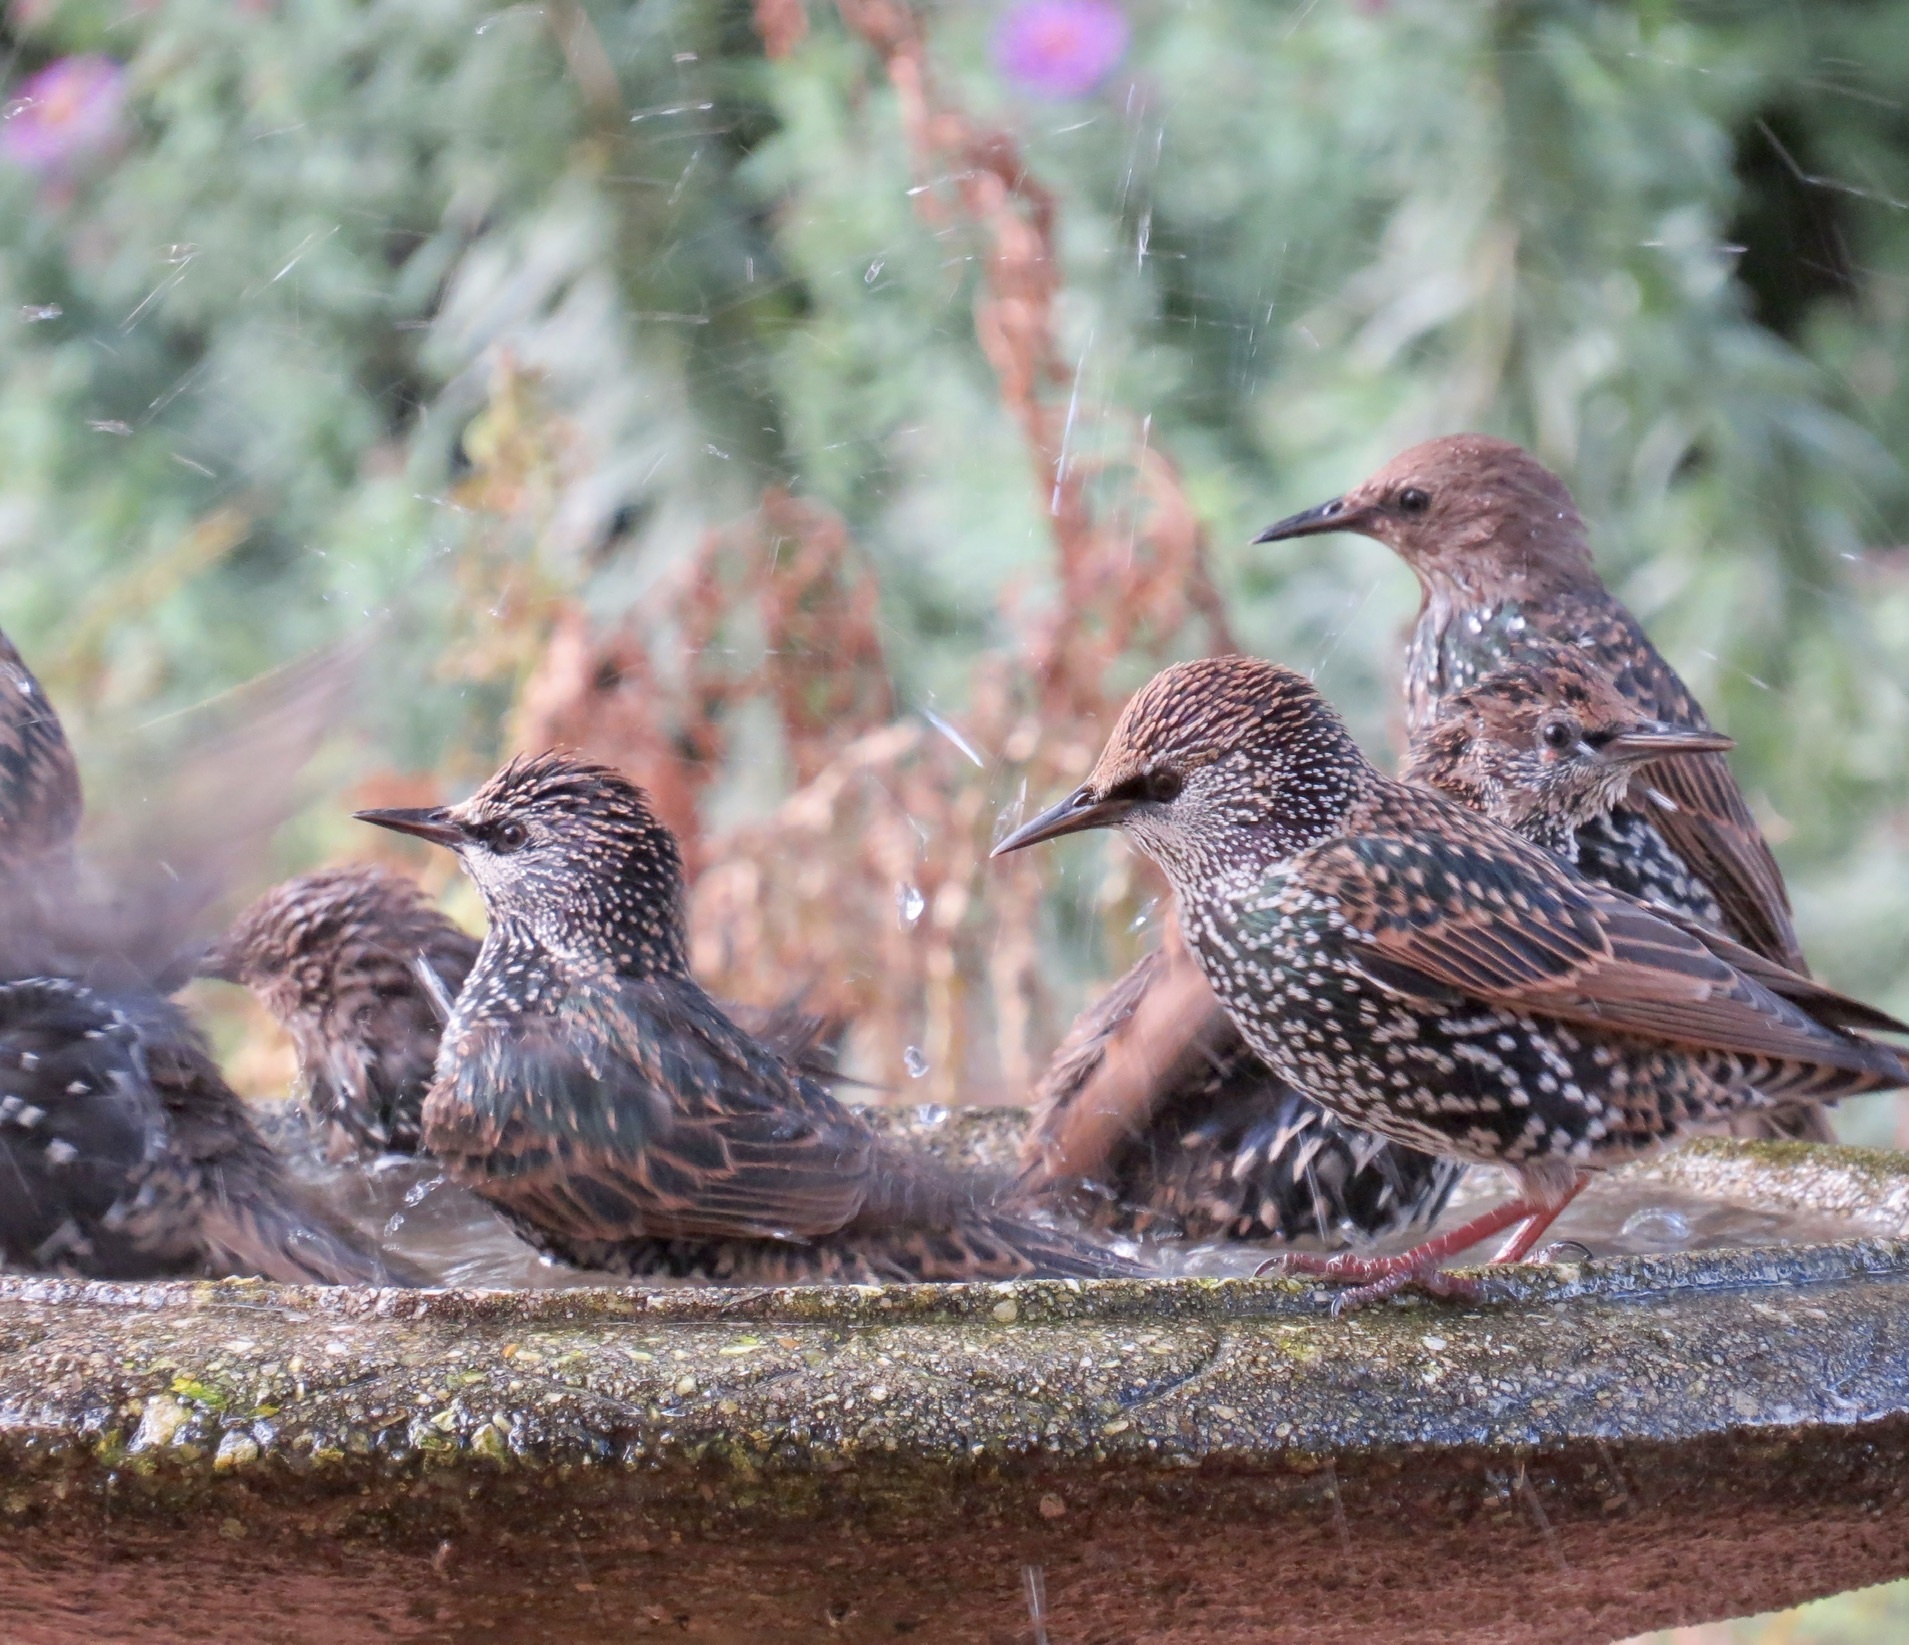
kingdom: Animalia
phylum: Chordata
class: Aves
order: Passeriformes
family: Sturnidae
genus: Sturnus
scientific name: Sturnus vulgaris
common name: Common starling
